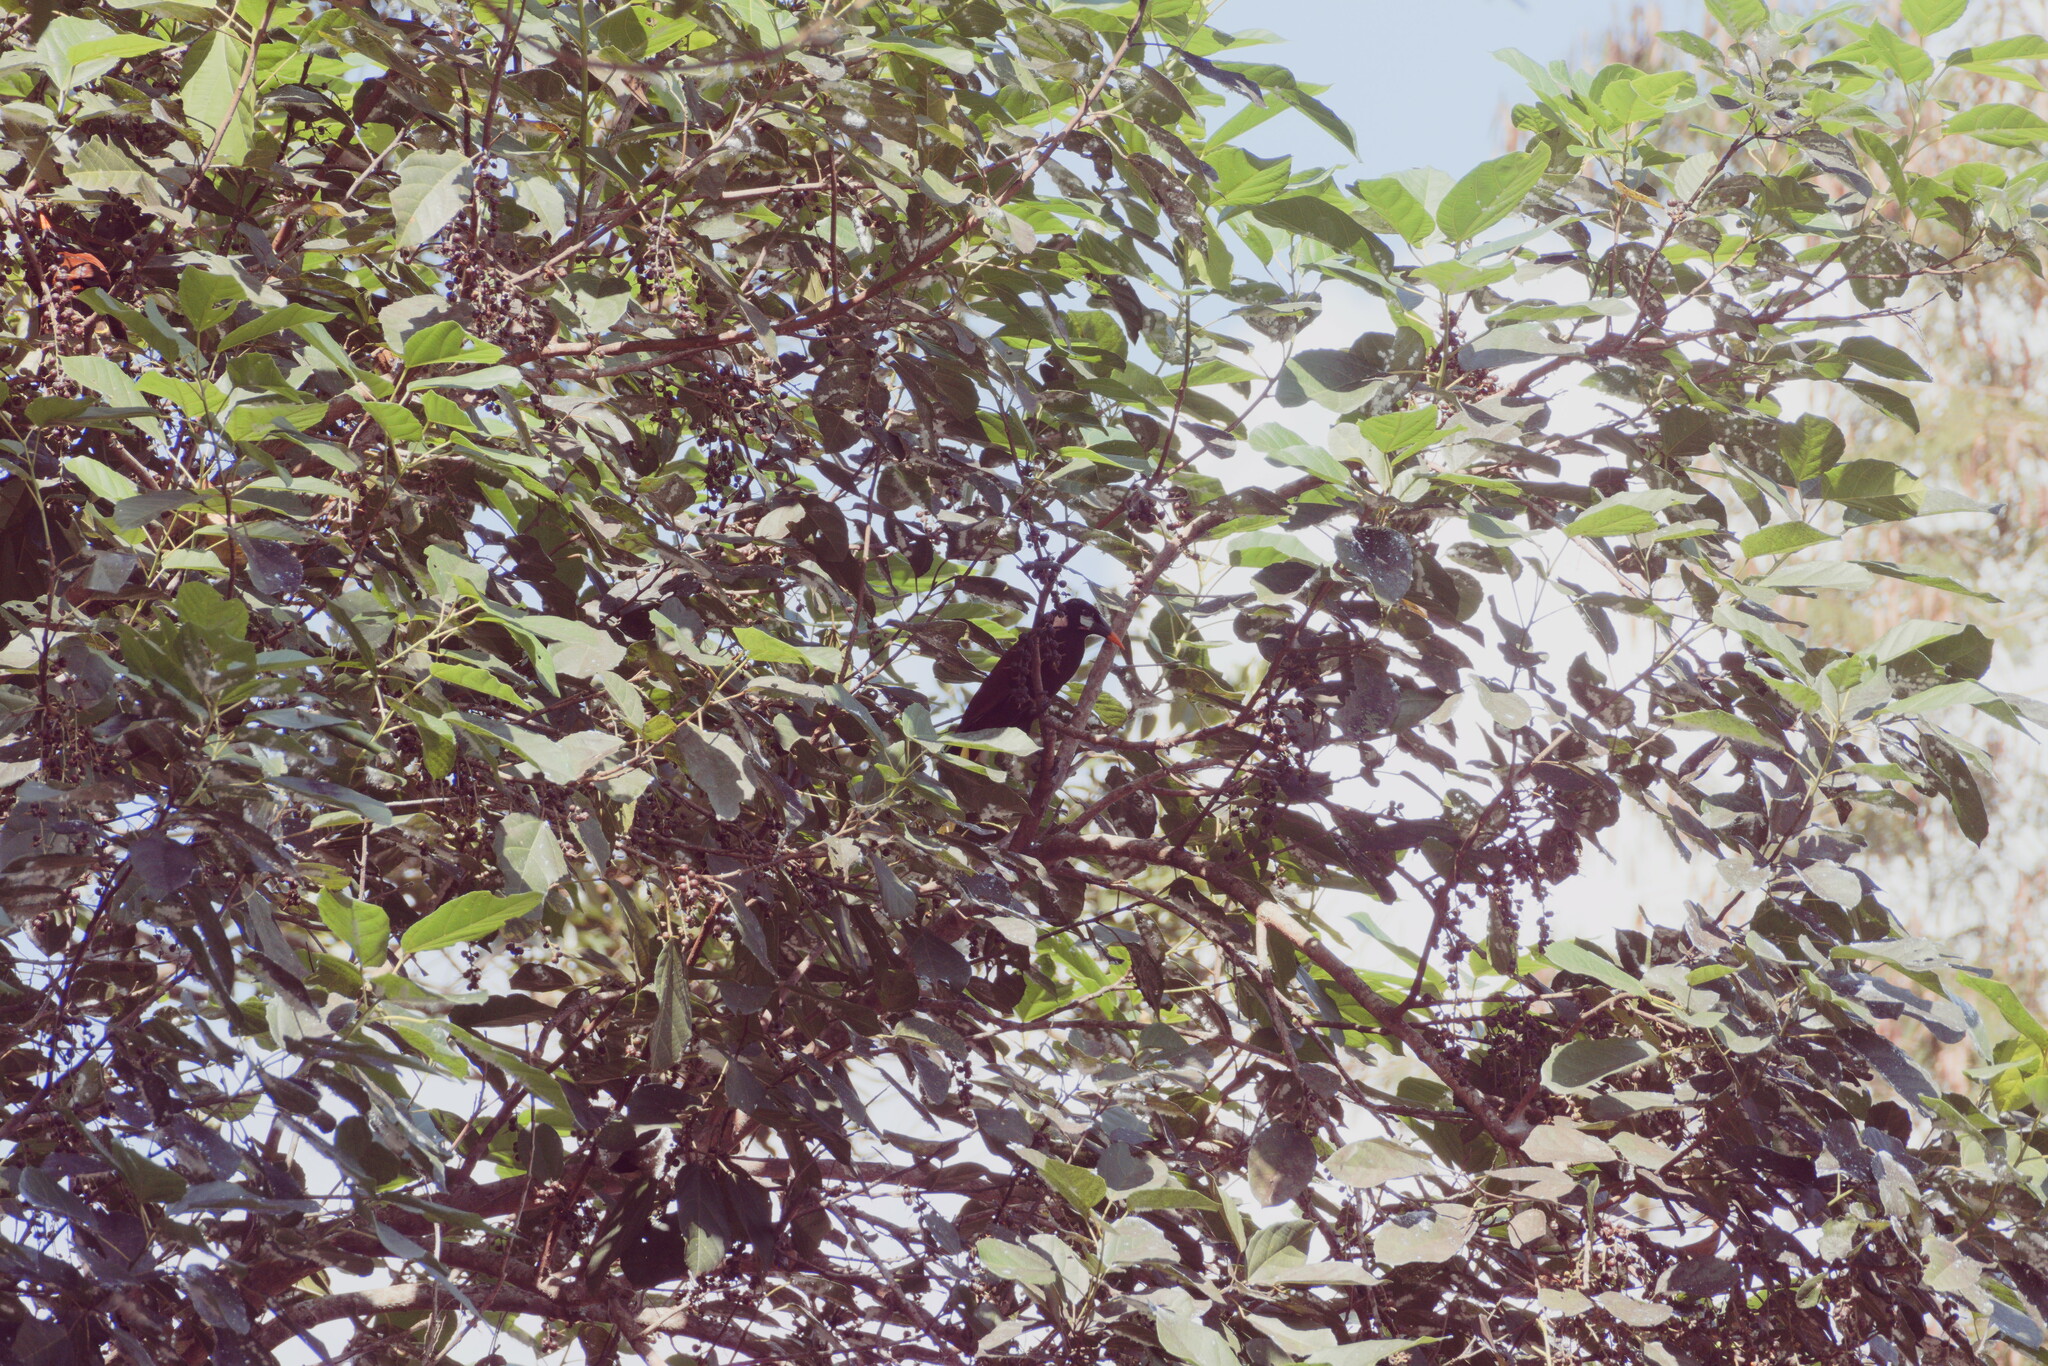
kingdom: Animalia
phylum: Chordata
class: Aves
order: Passeriformes
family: Icteridae
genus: Psarocolius
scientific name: Psarocolius montezuma
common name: Montezuma oropendola
